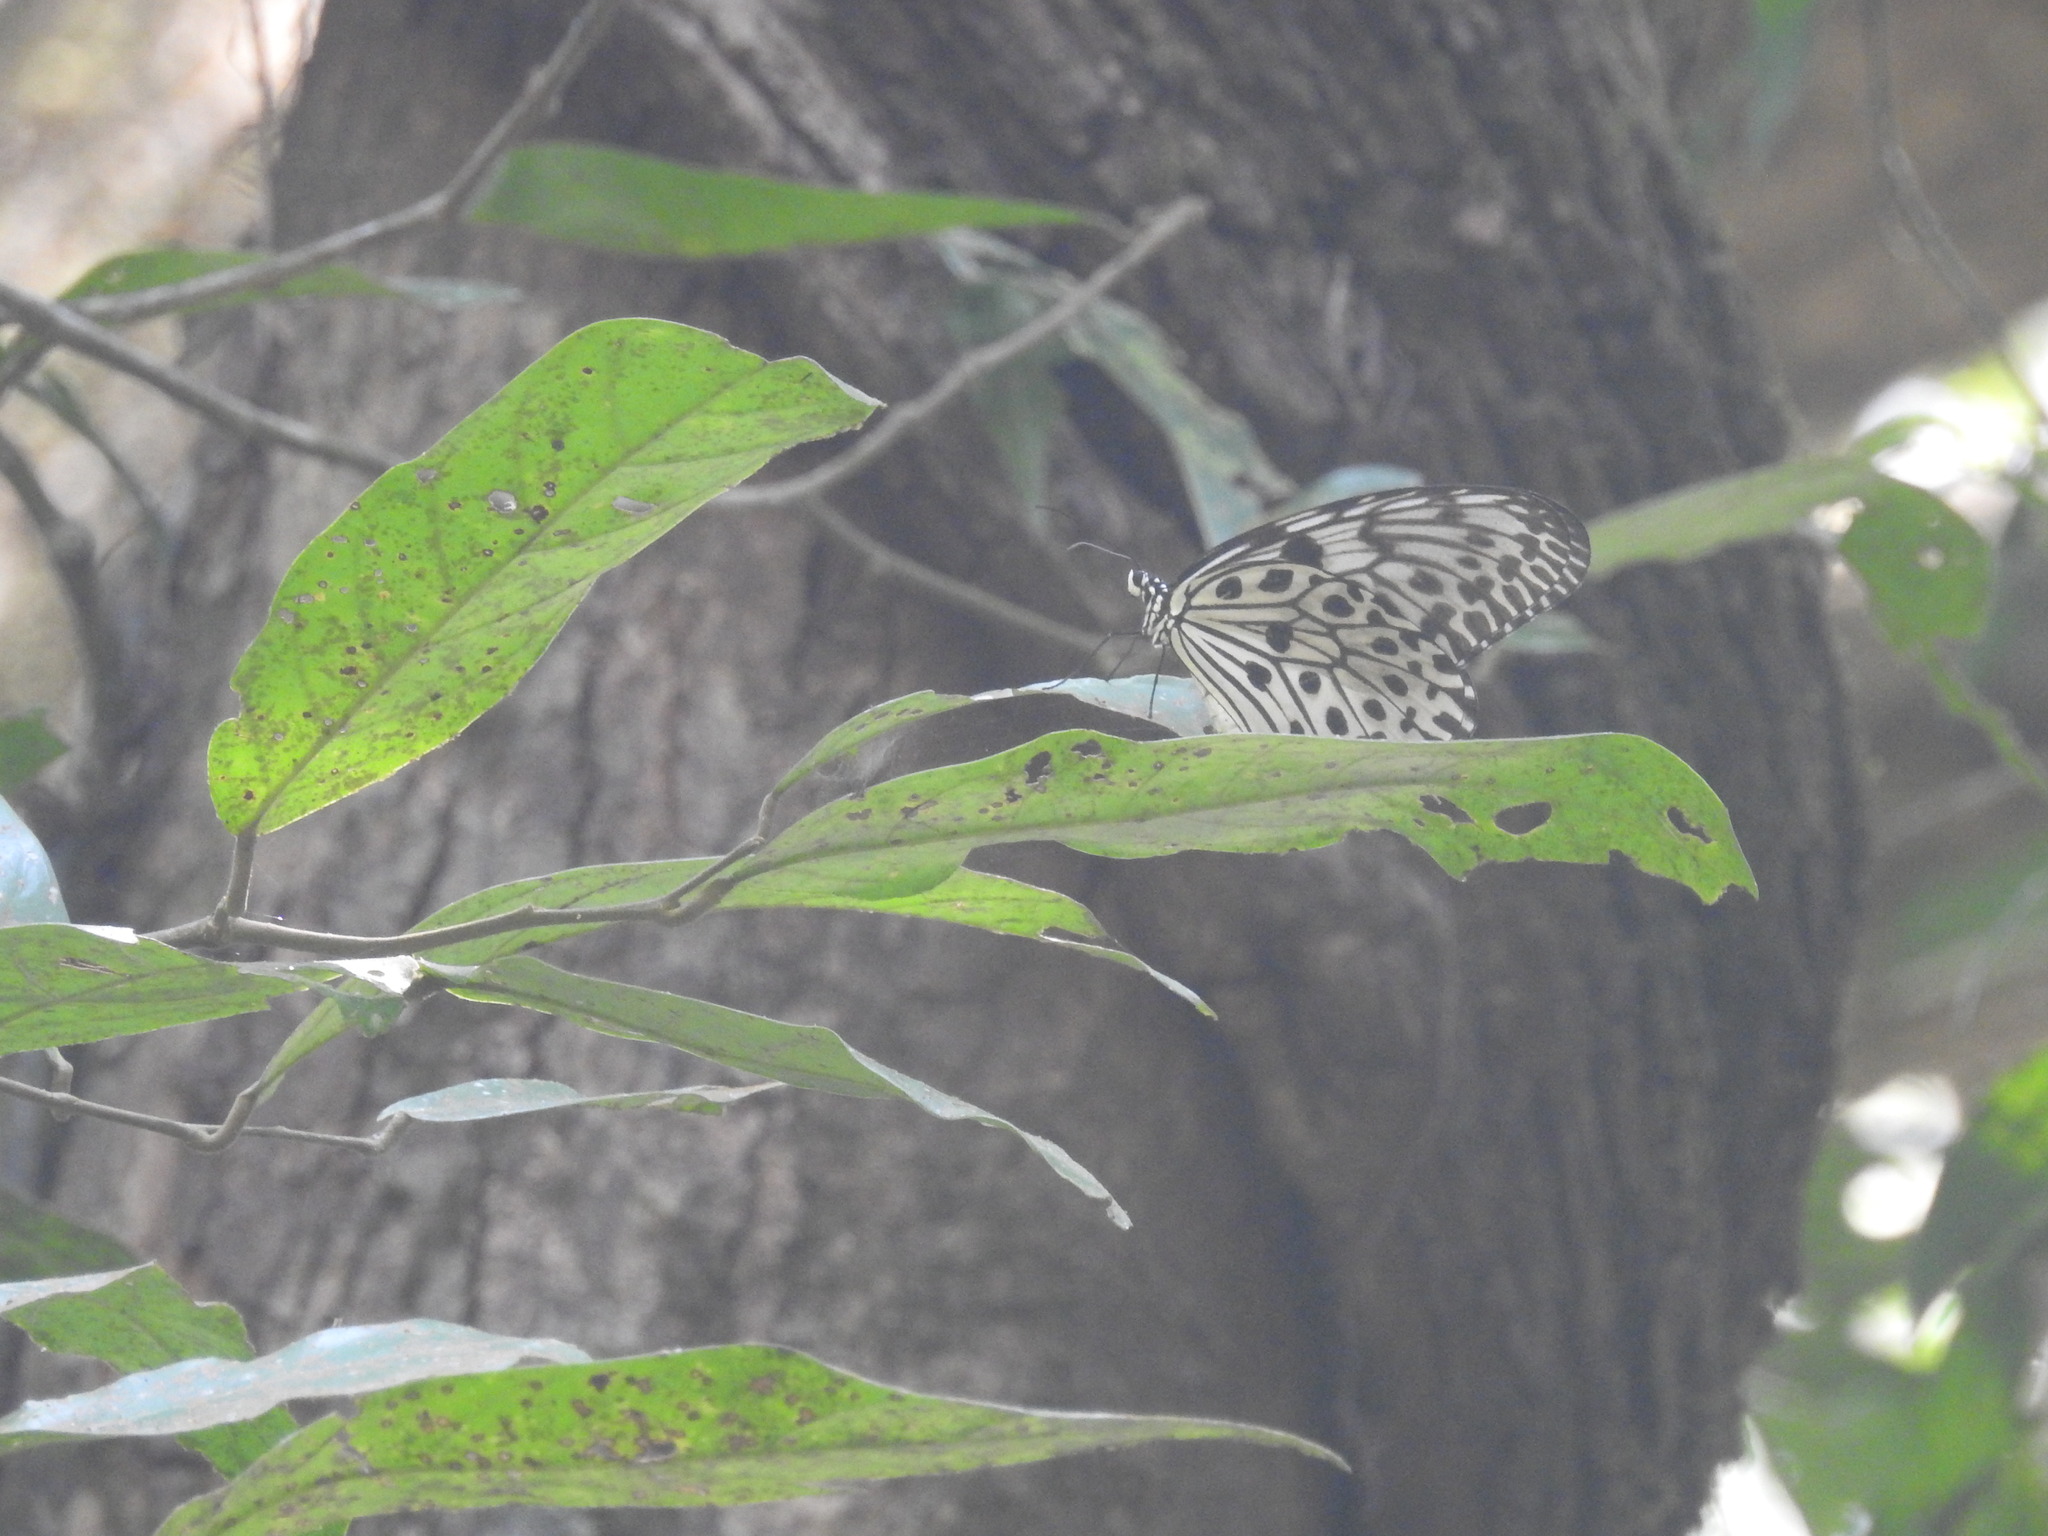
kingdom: Animalia
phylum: Arthropoda
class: Insecta
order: Lepidoptera
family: Nymphalidae
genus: Idea
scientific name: Idea malabarica
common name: Malabar tree-nymph
